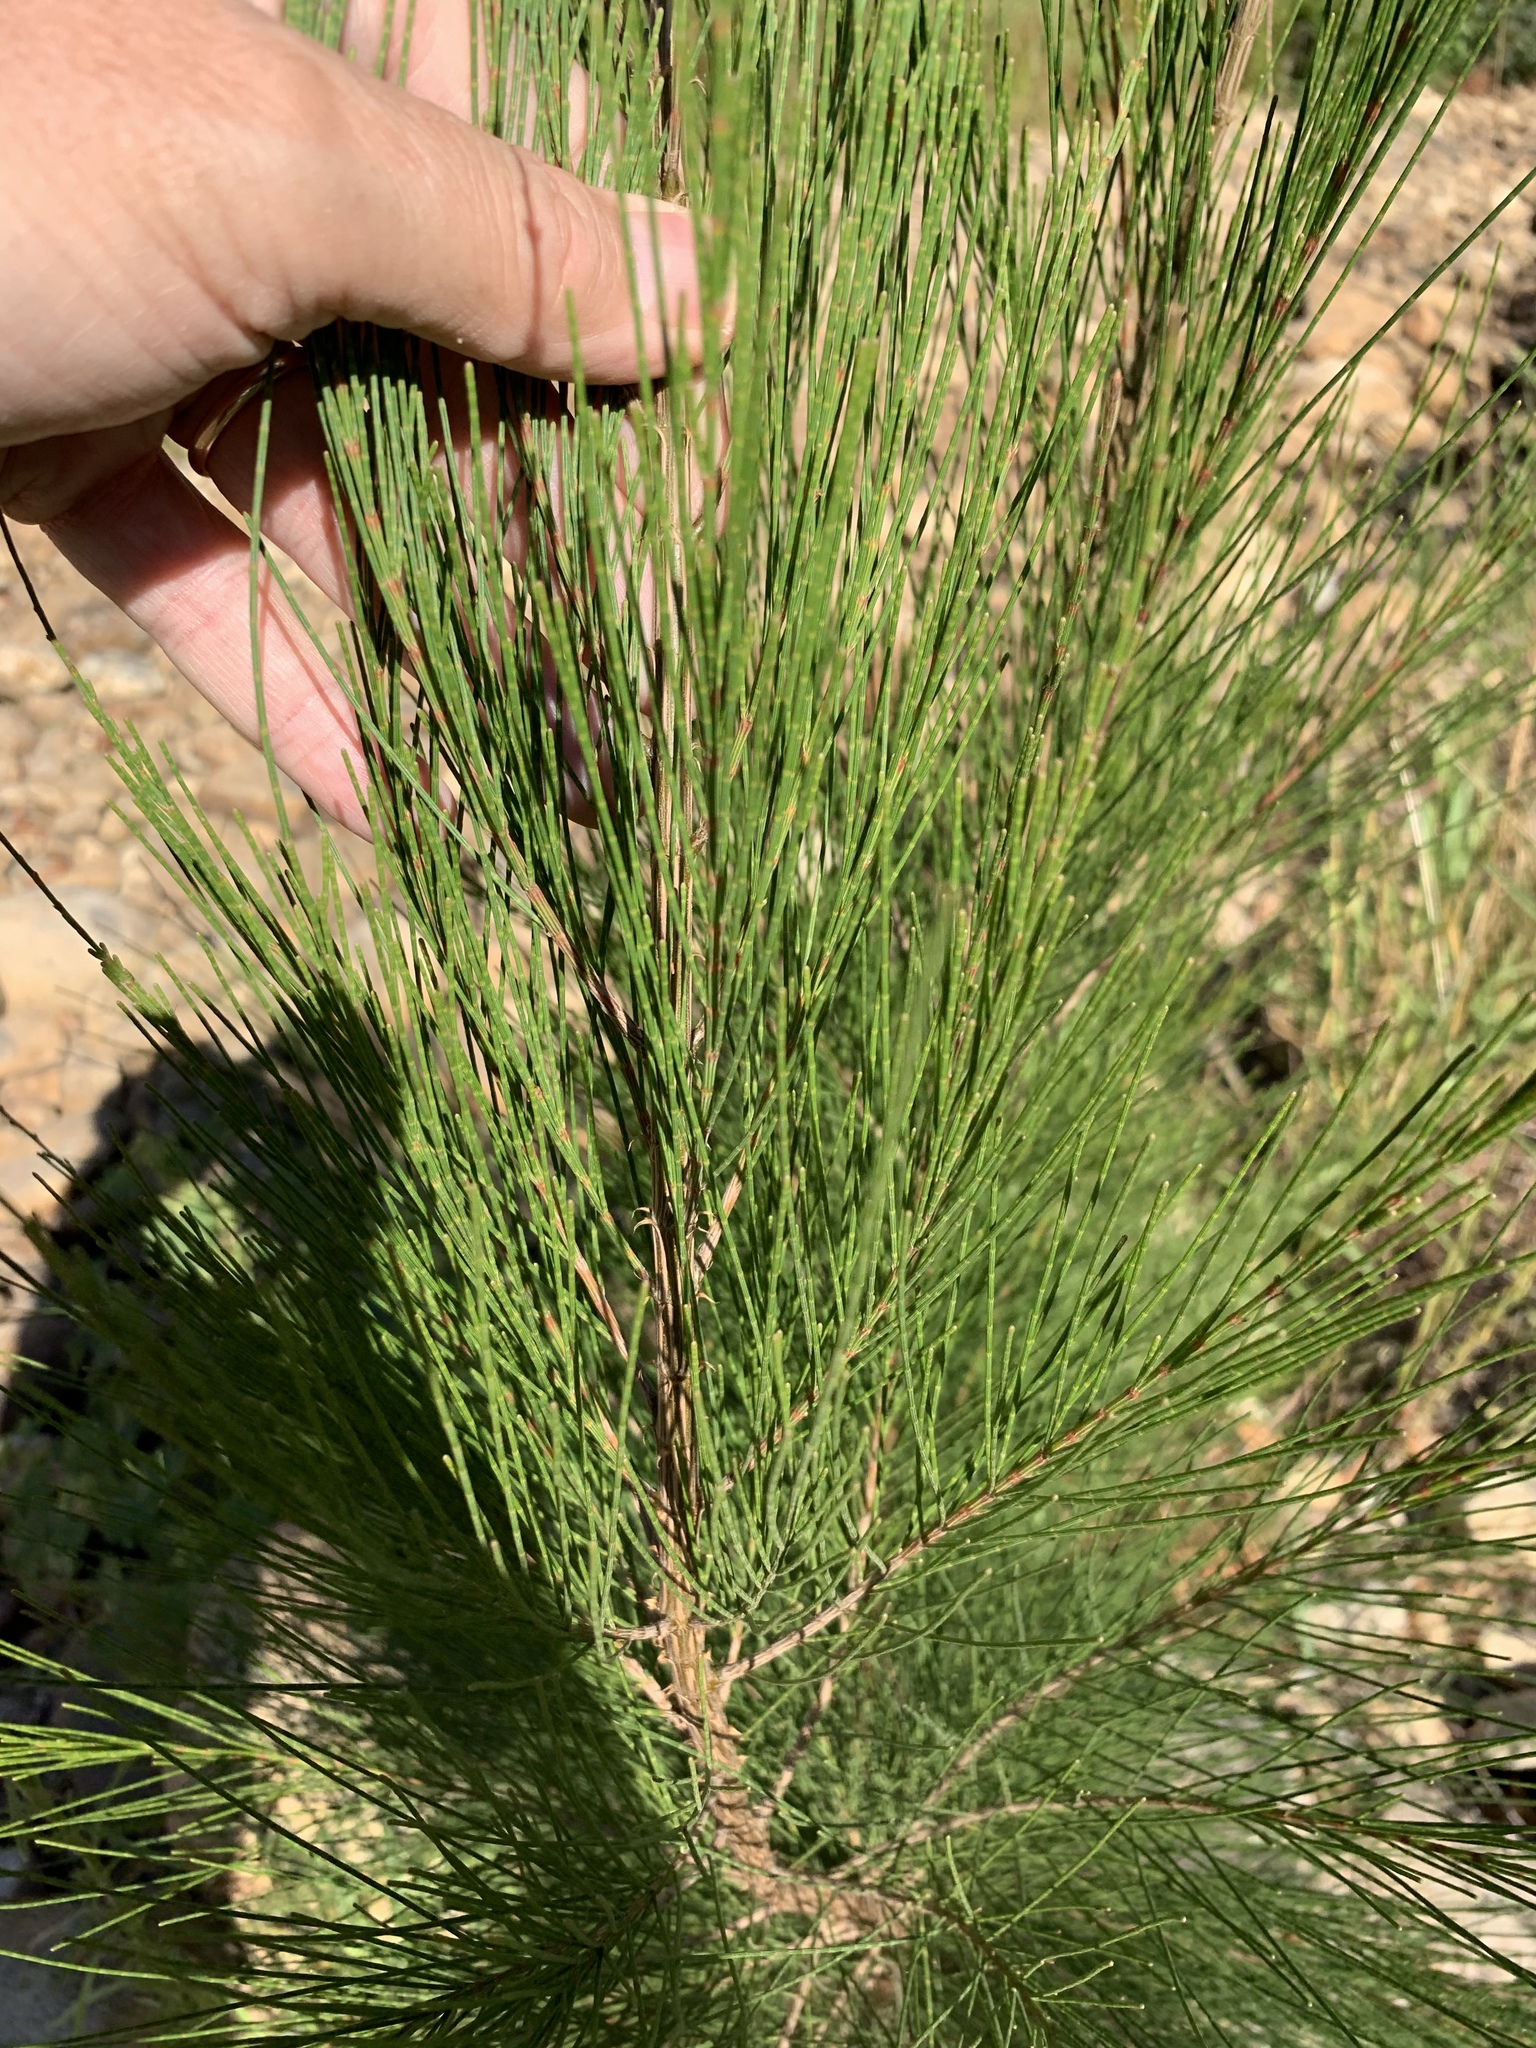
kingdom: Plantae
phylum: Tracheophyta
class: Magnoliopsida
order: Fagales
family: Casuarinaceae
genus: Casuarina
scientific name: Casuarina cunninghamiana
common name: River sheoak
